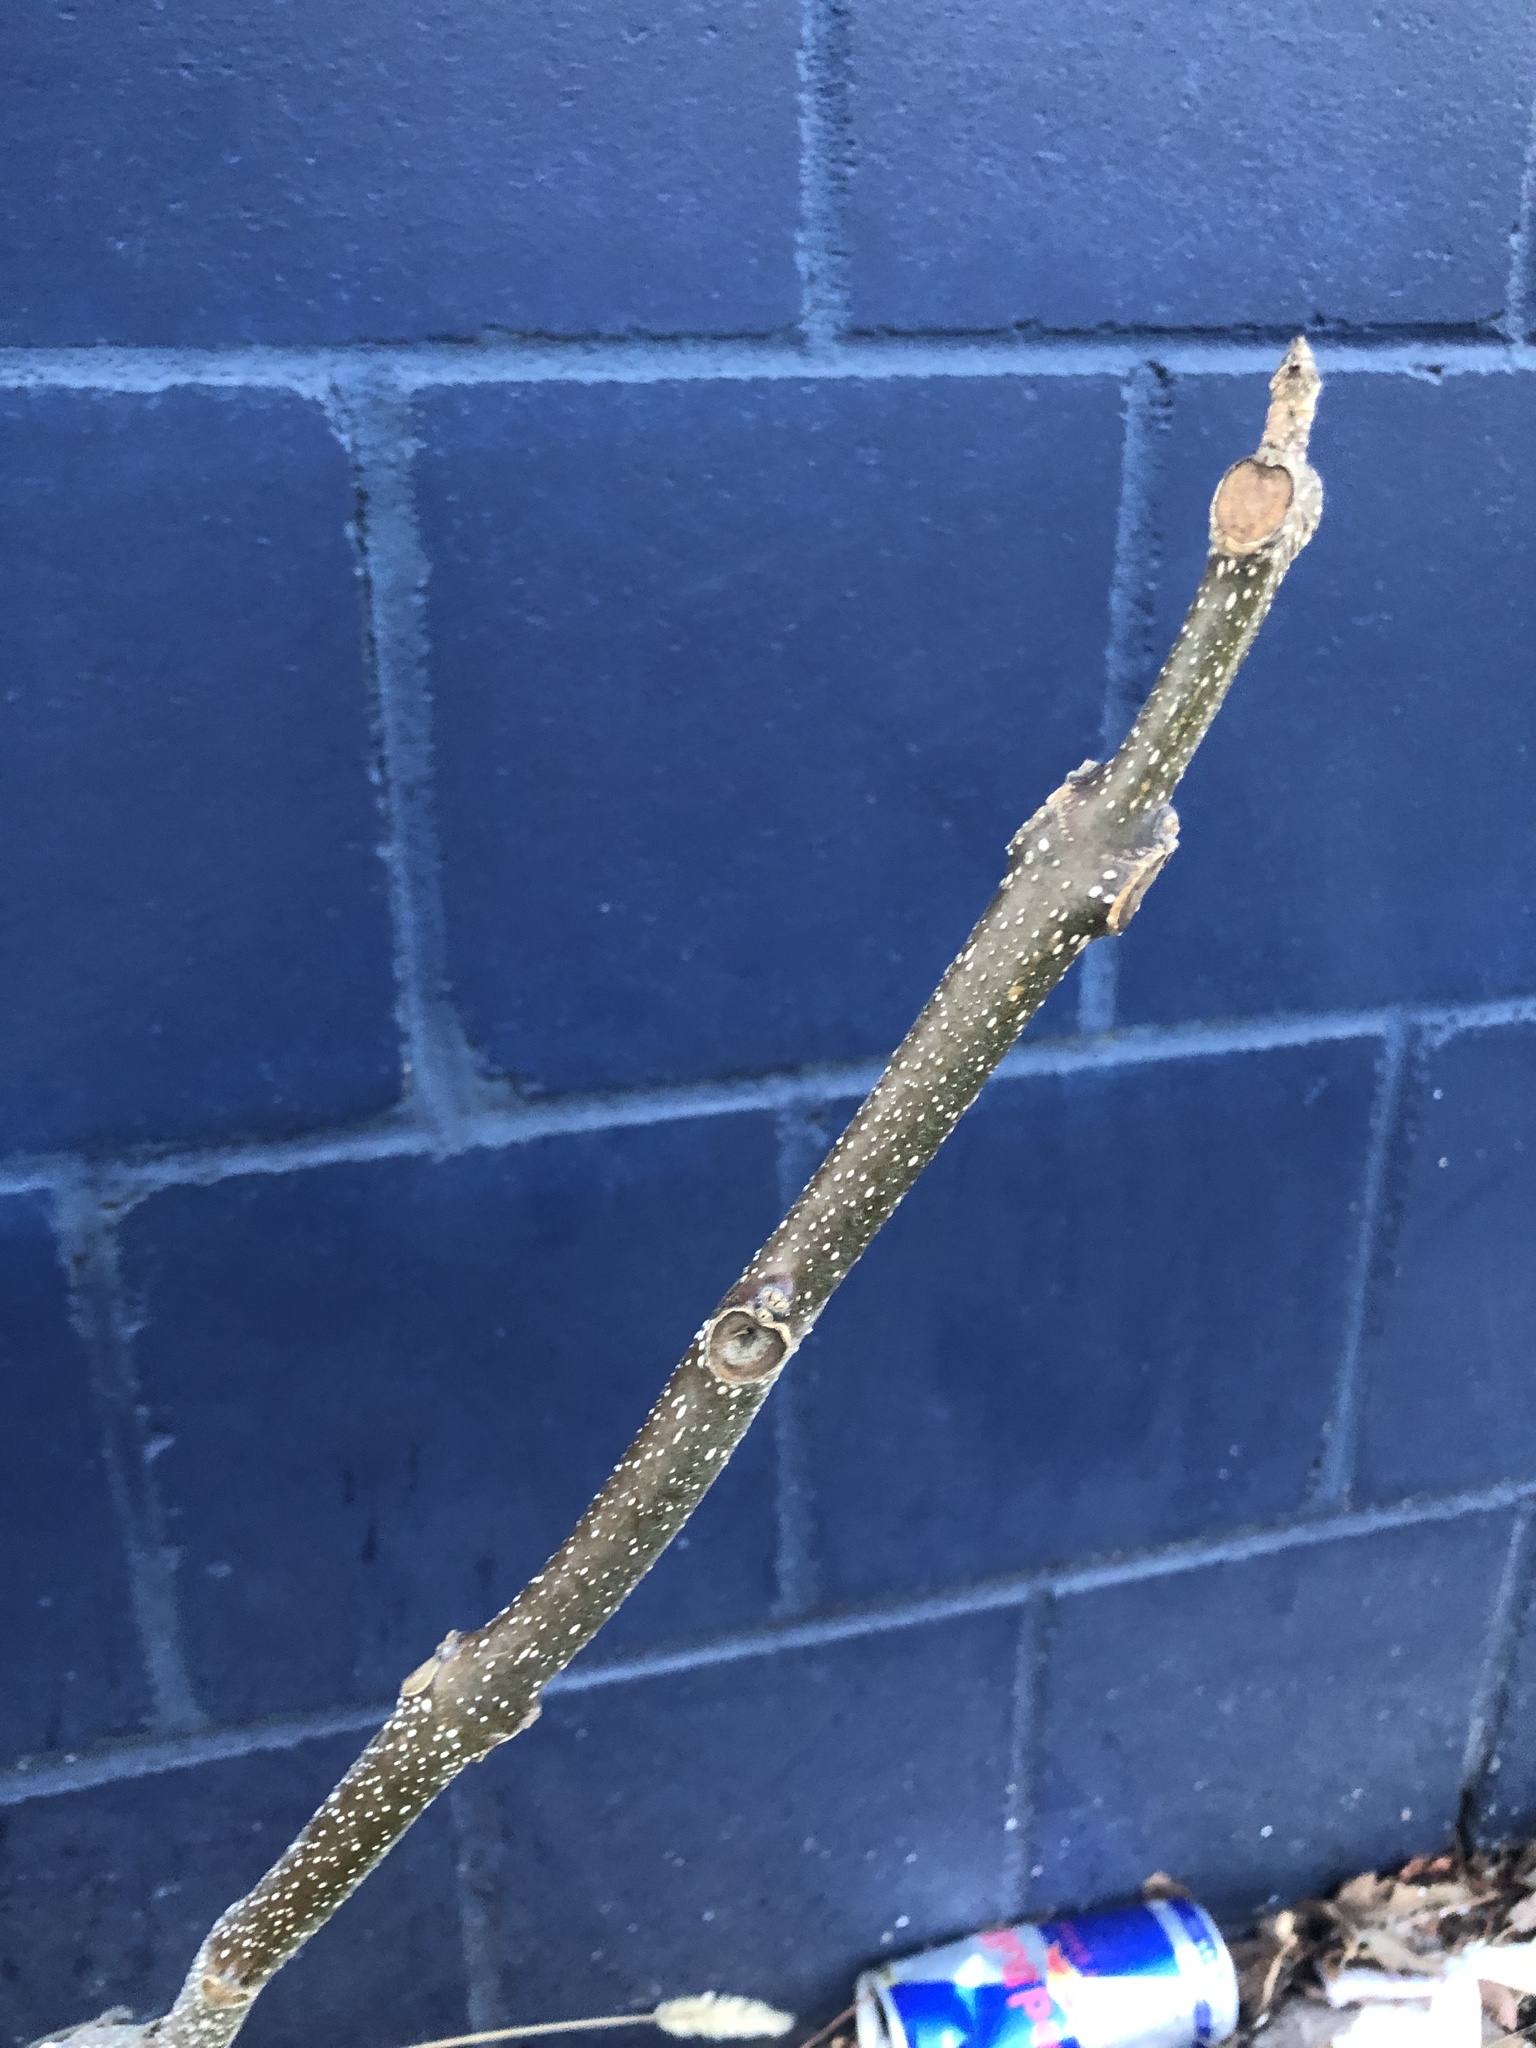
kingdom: Plantae
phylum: Tracheophyta
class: Magnoliopsida
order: Lamiales
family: Paulowniaceae
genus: Paulownia
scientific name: Paulownia tomentosa
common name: Foxglove-tree
